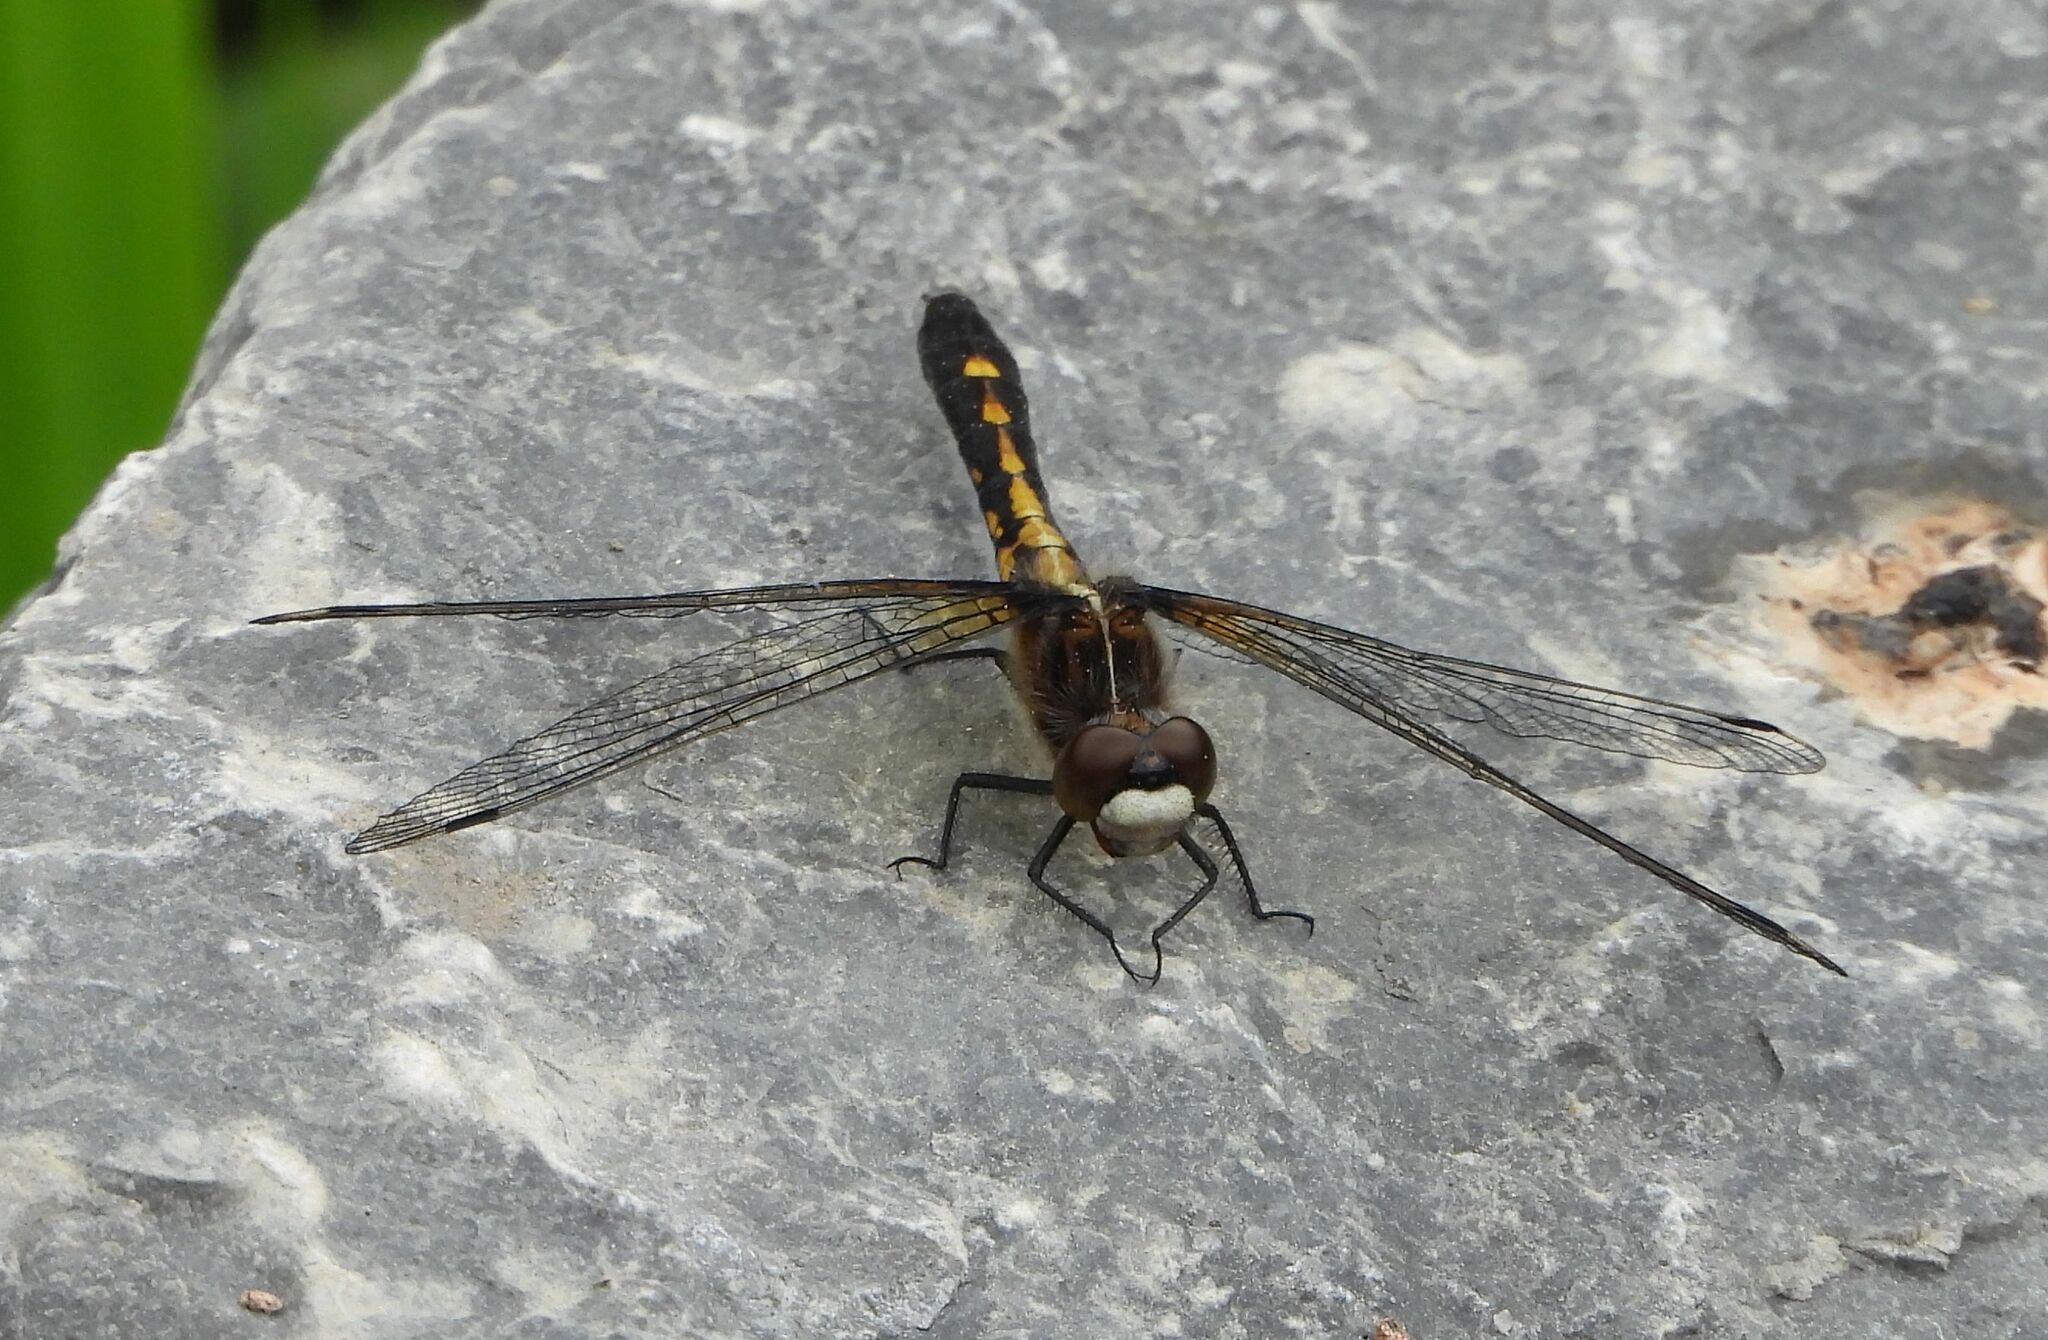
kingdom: Animalia
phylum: Arthropoda
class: Insecta
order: Odonata
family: Libellulidae
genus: Leucorrhinia
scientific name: Leucorrhinia intacta
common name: Dot-tailed whiteface
